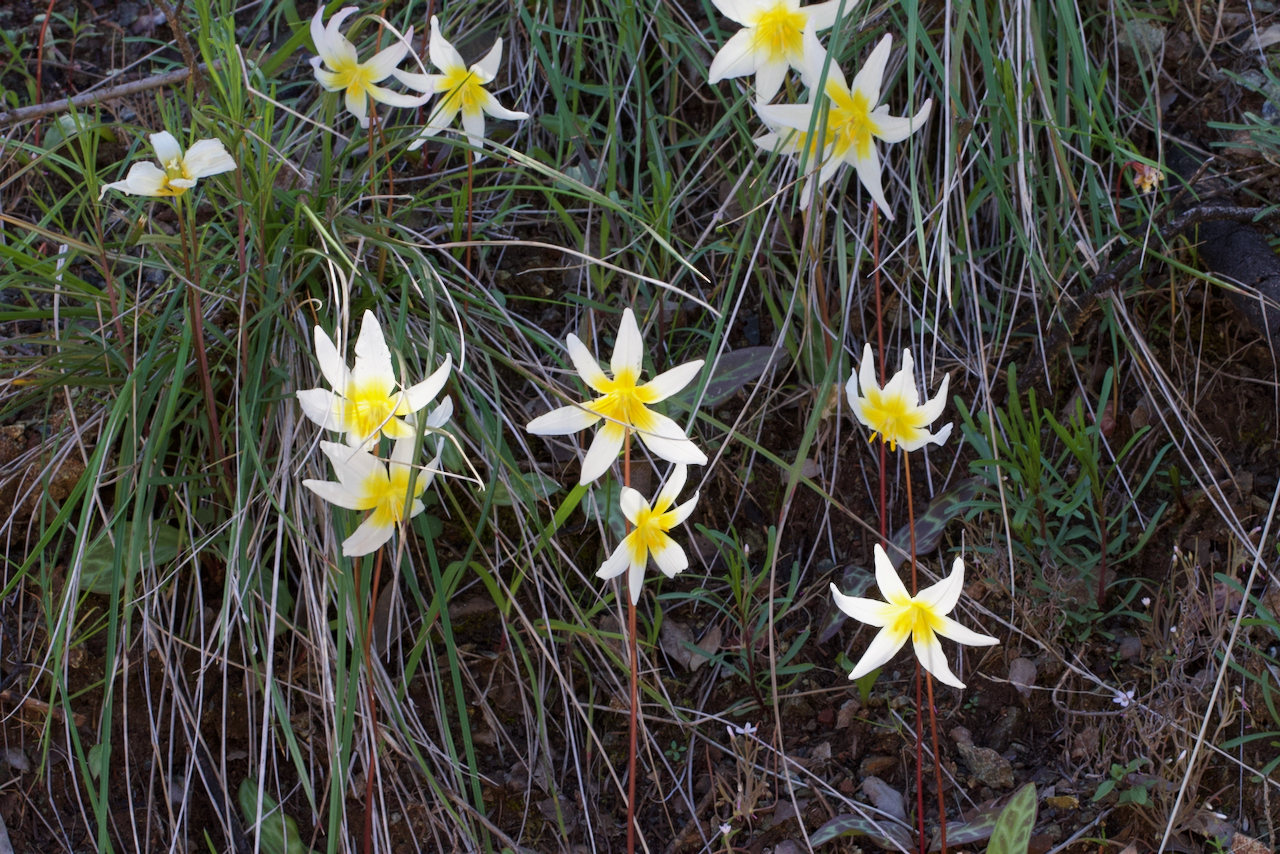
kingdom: Plantae
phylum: Tracheophyta
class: Liliopsida
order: Liliales
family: Liliaceae
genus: Erythronium
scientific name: Erythronium helenae
